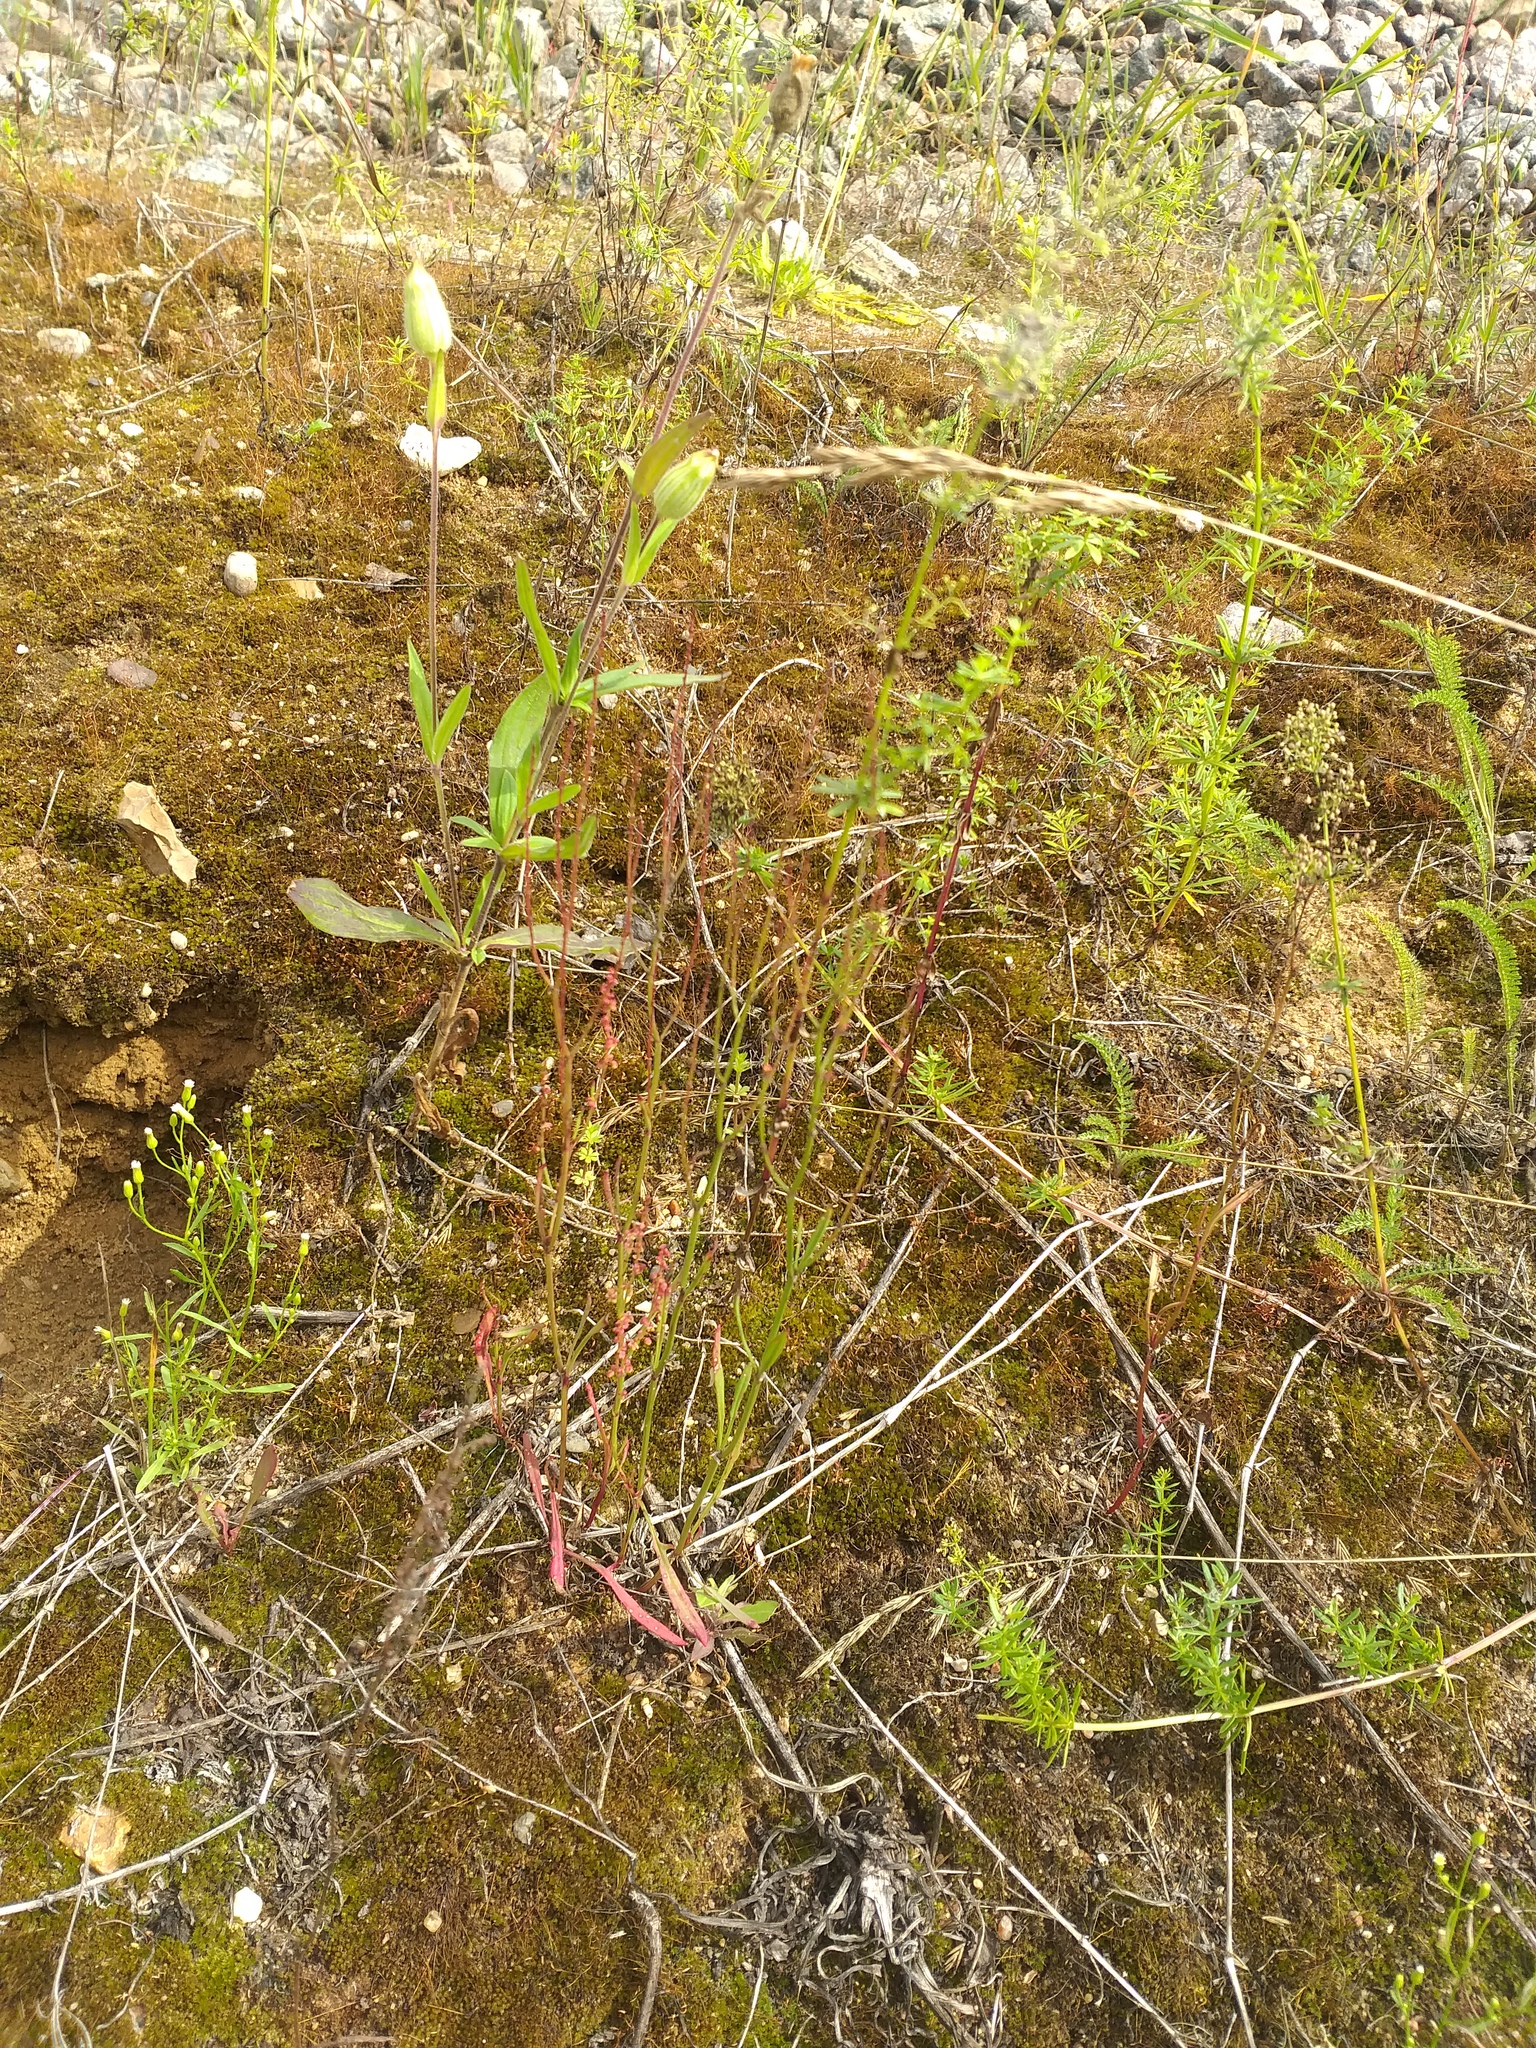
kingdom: Plantae
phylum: Tracheophyta
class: Magnoliopsida
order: Caryophyllales
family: Polygonaceae
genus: Rumex
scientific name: Rumex acetosella
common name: Common sheep sorrel
